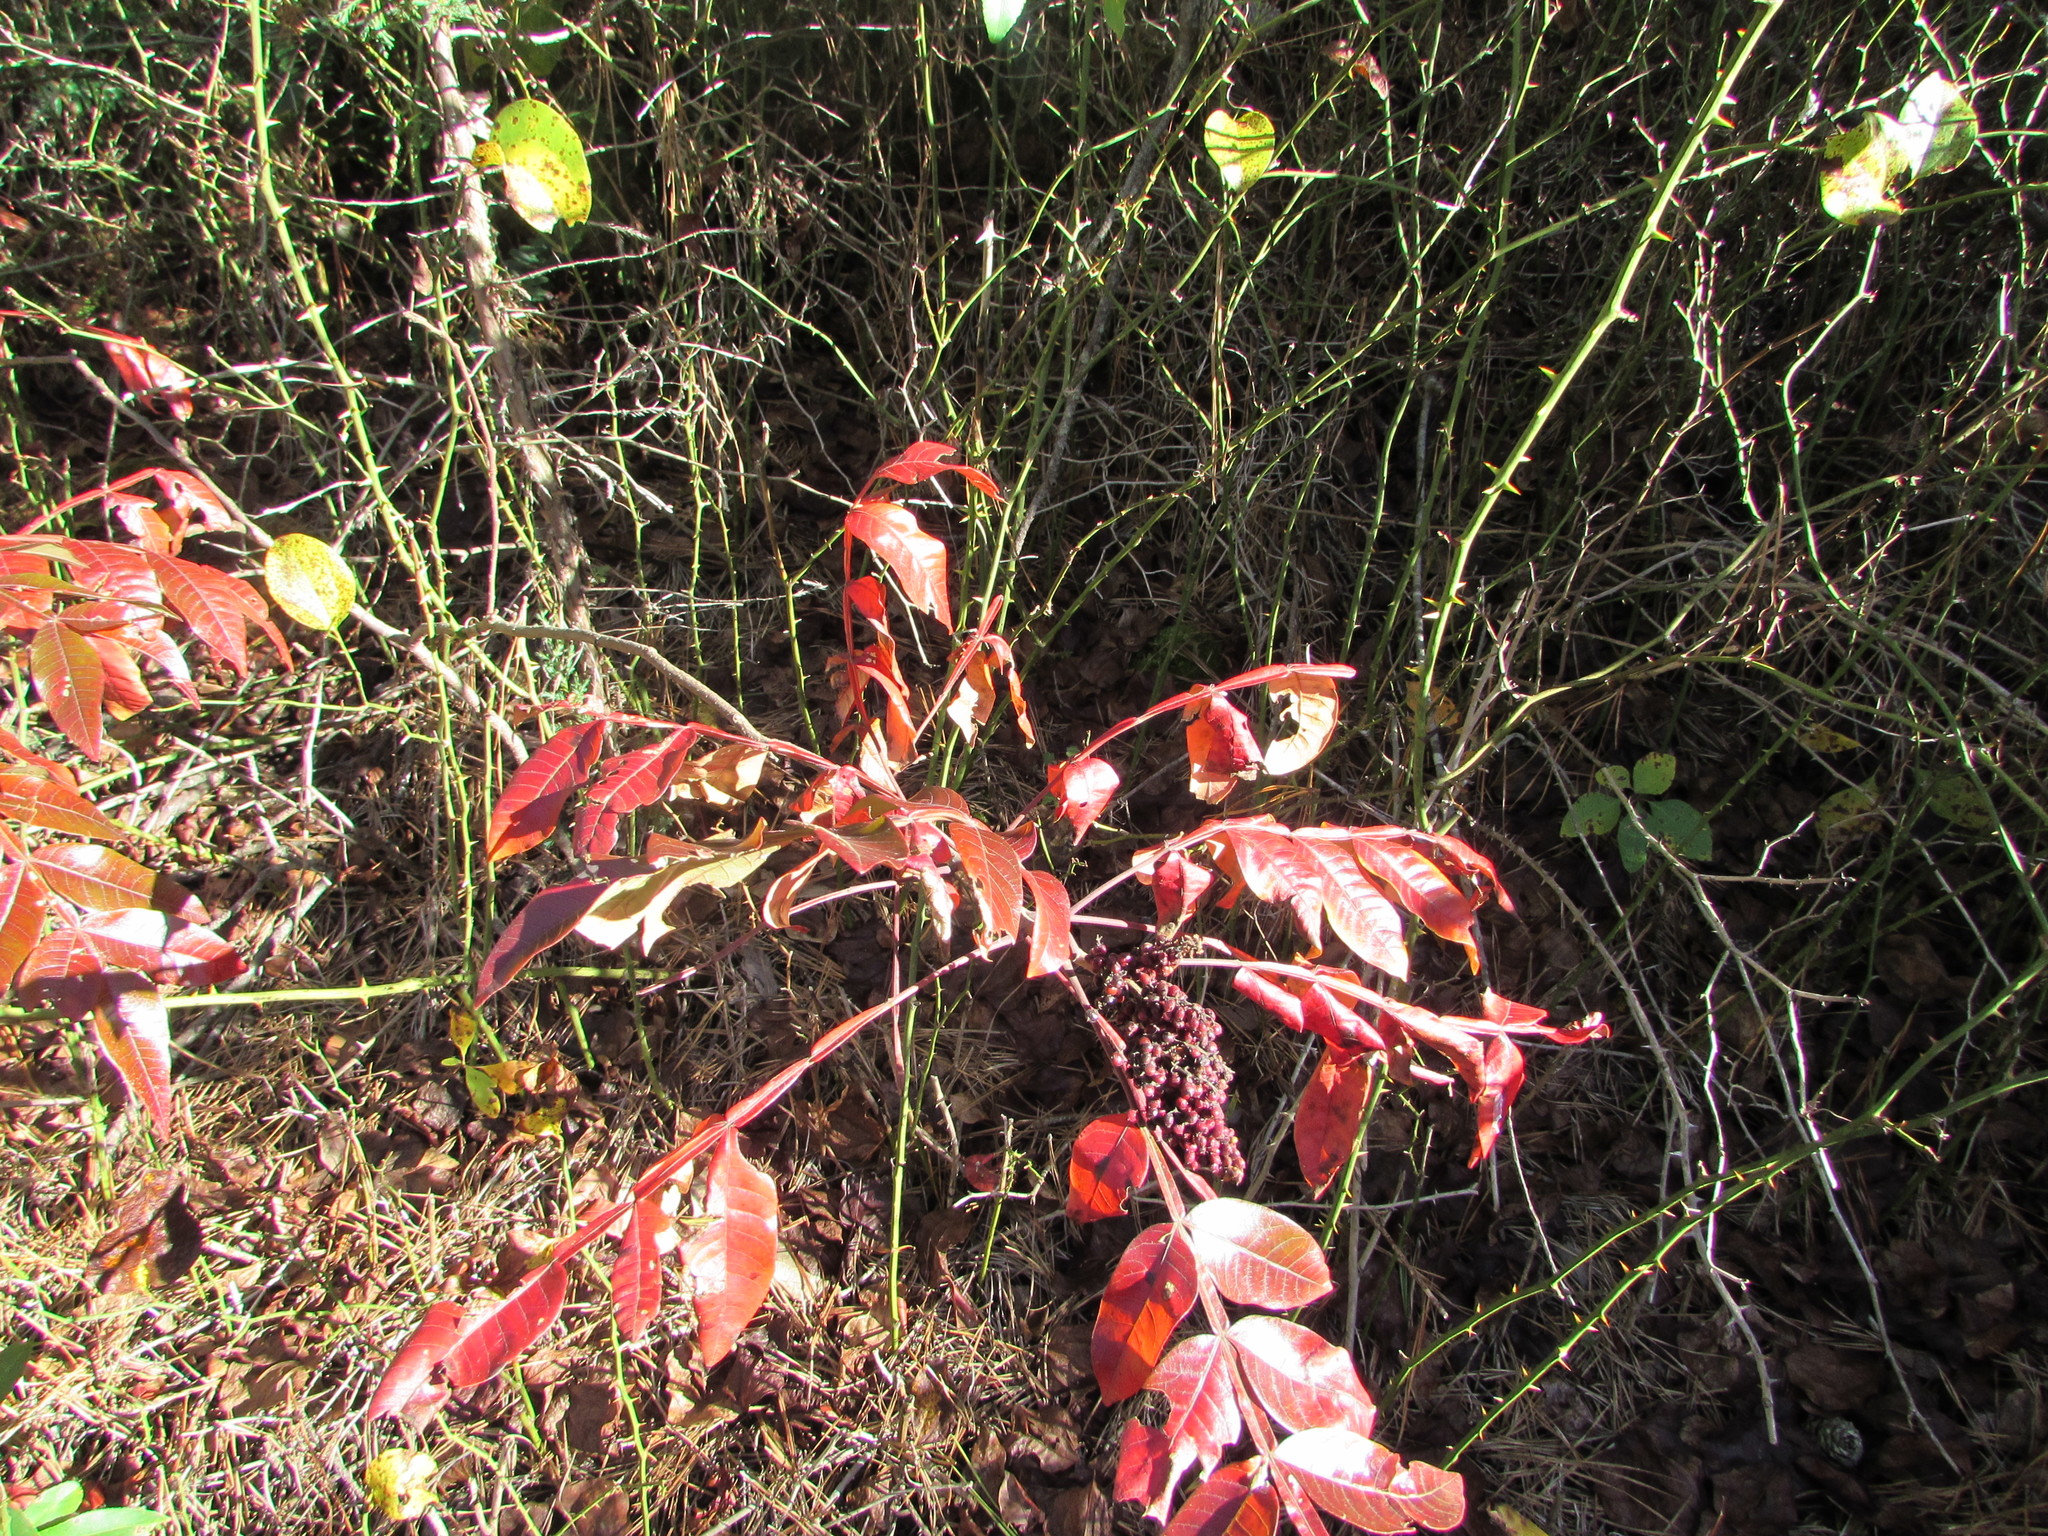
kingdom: Plantae
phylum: Tracheophyta
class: Magnoliopsida
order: Sapindales
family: Anacardiaceae
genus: Rhus
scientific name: Rhus copallina
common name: Shining sumac
